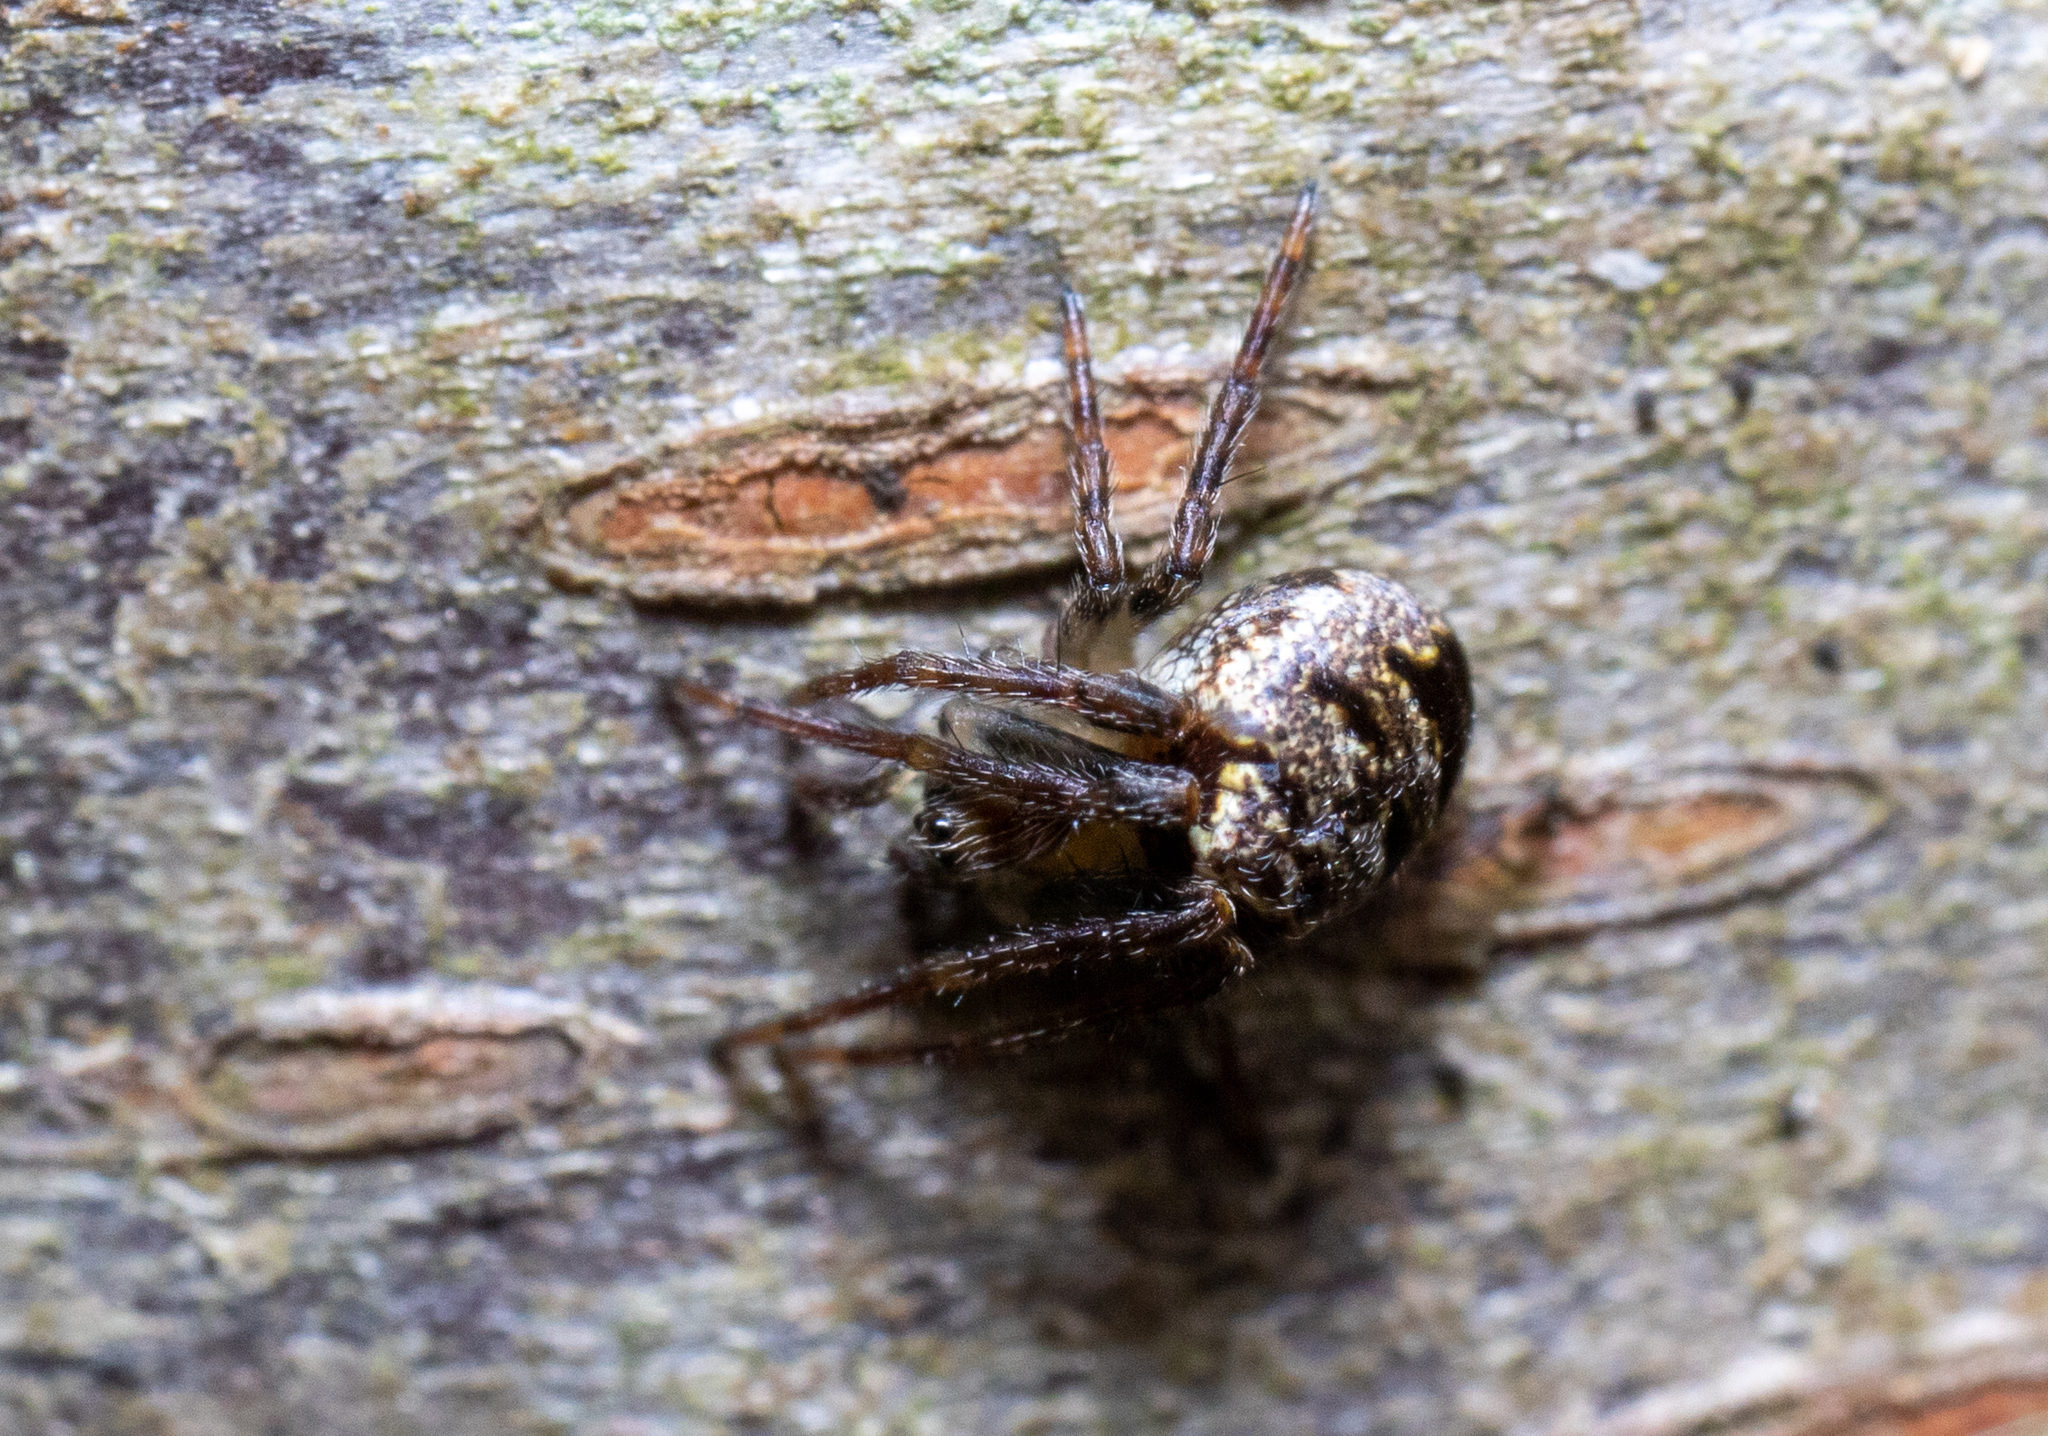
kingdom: Animalia
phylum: Arthropoda
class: Arachnida
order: Araneae
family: Araneidae
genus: Zilla
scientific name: Zilla diodia
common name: Zilla diodia
